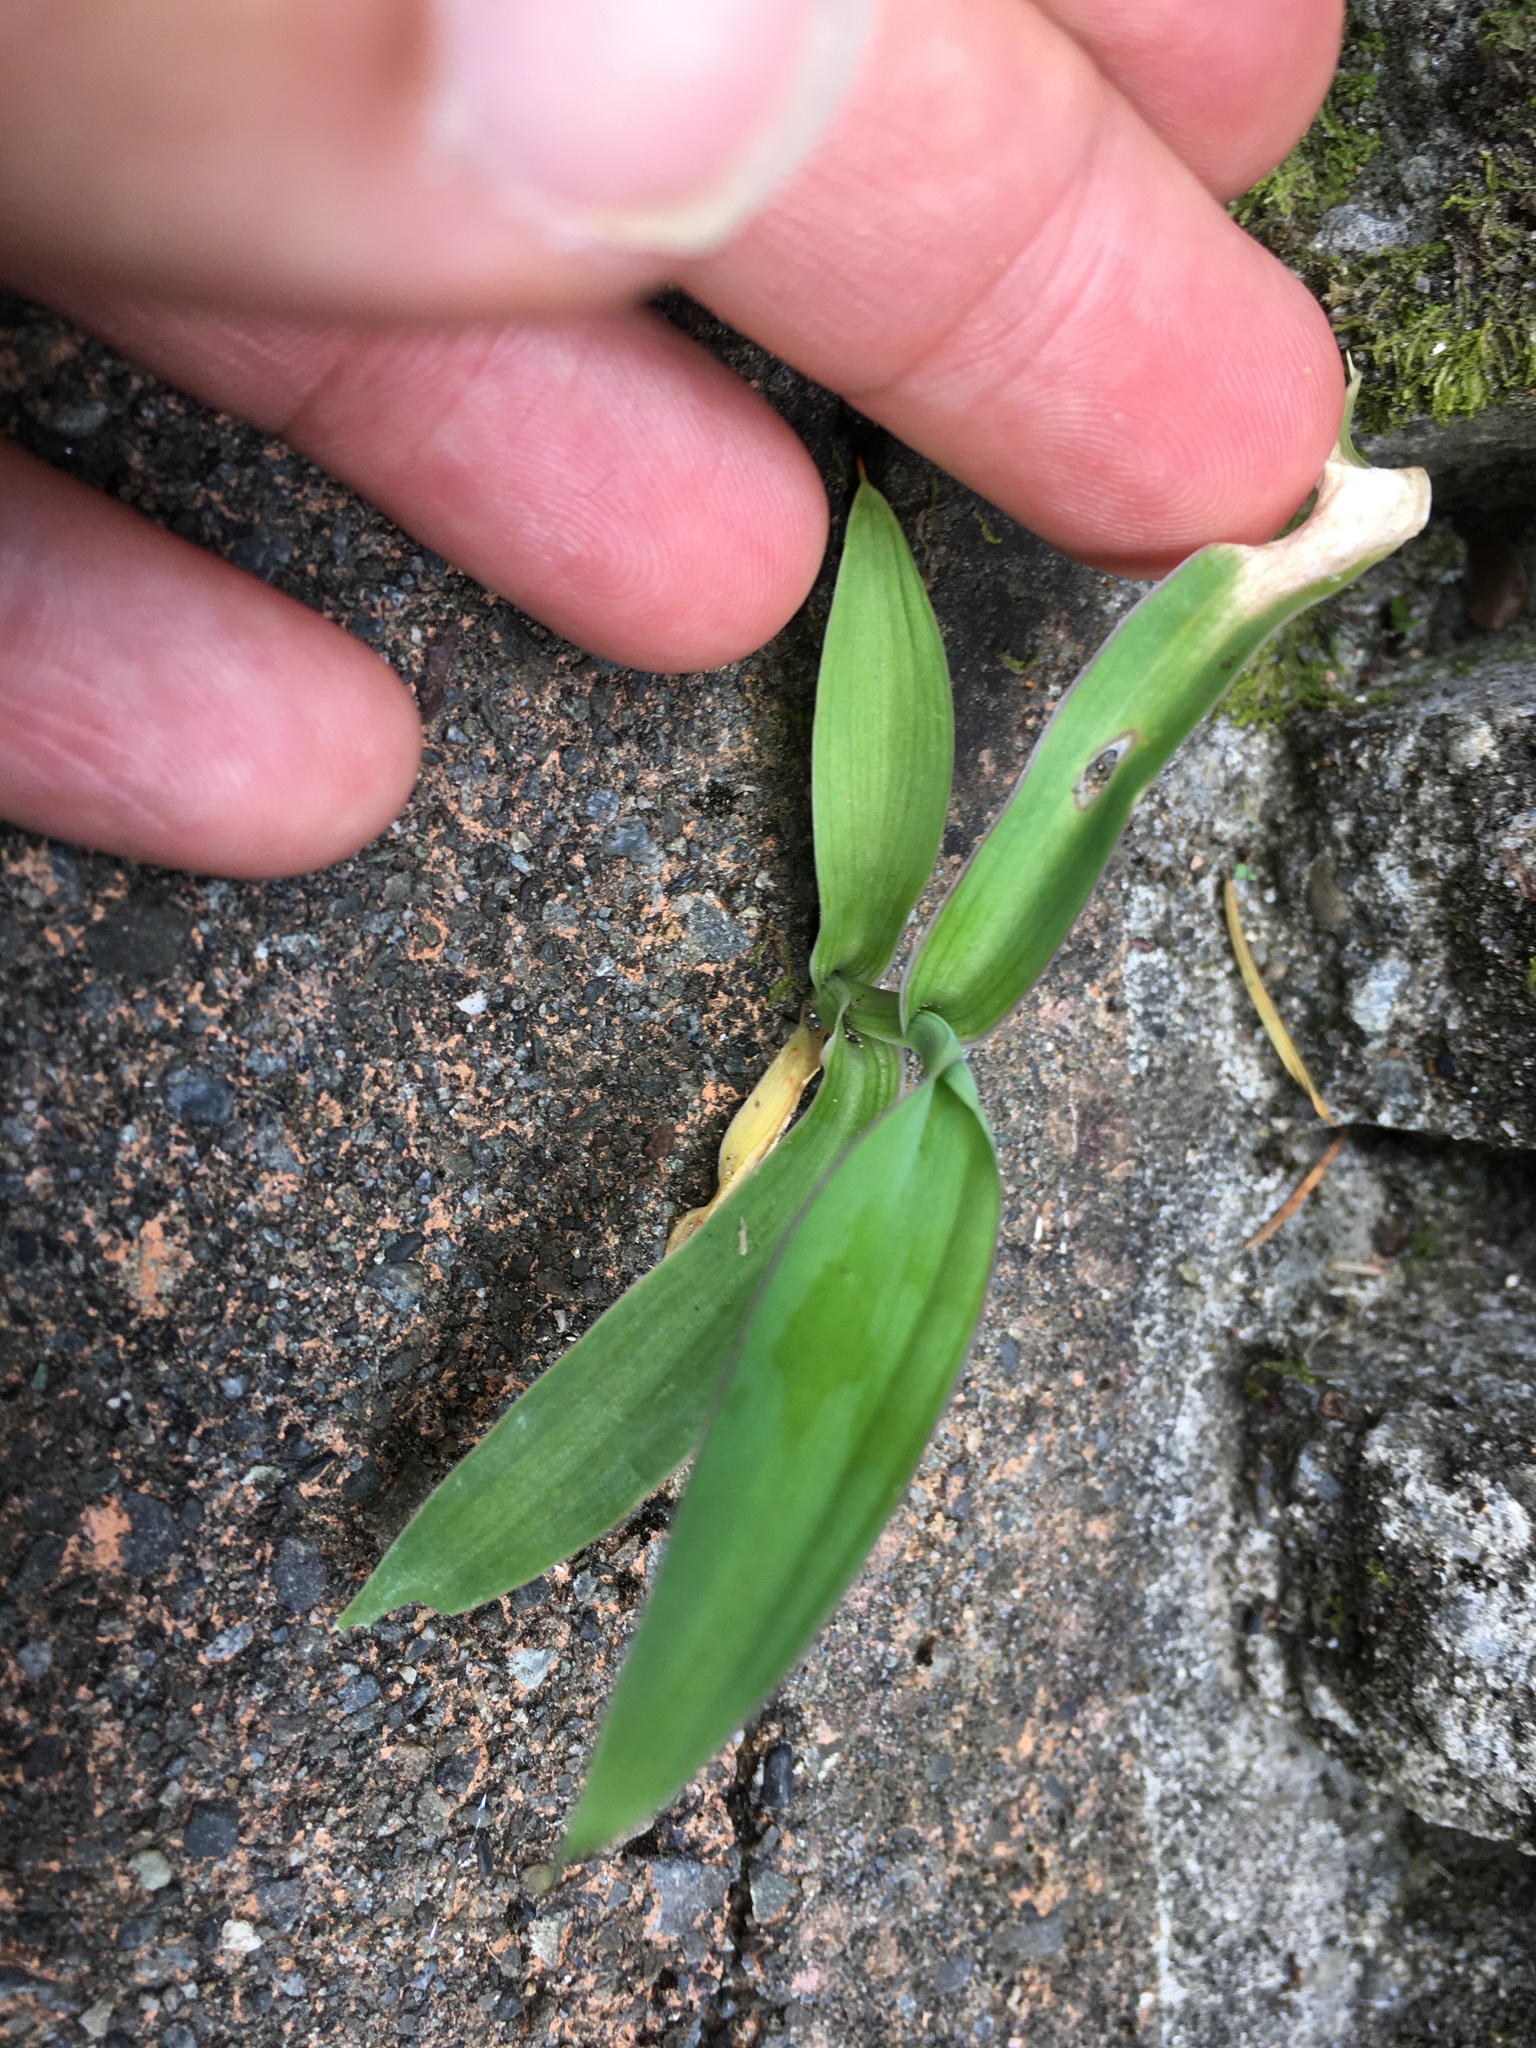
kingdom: Plantae
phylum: Tracheophyta
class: Liliopsida
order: Asparagales
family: Asparagaceae
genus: Arthropodium
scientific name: Arthropodium cirratum
